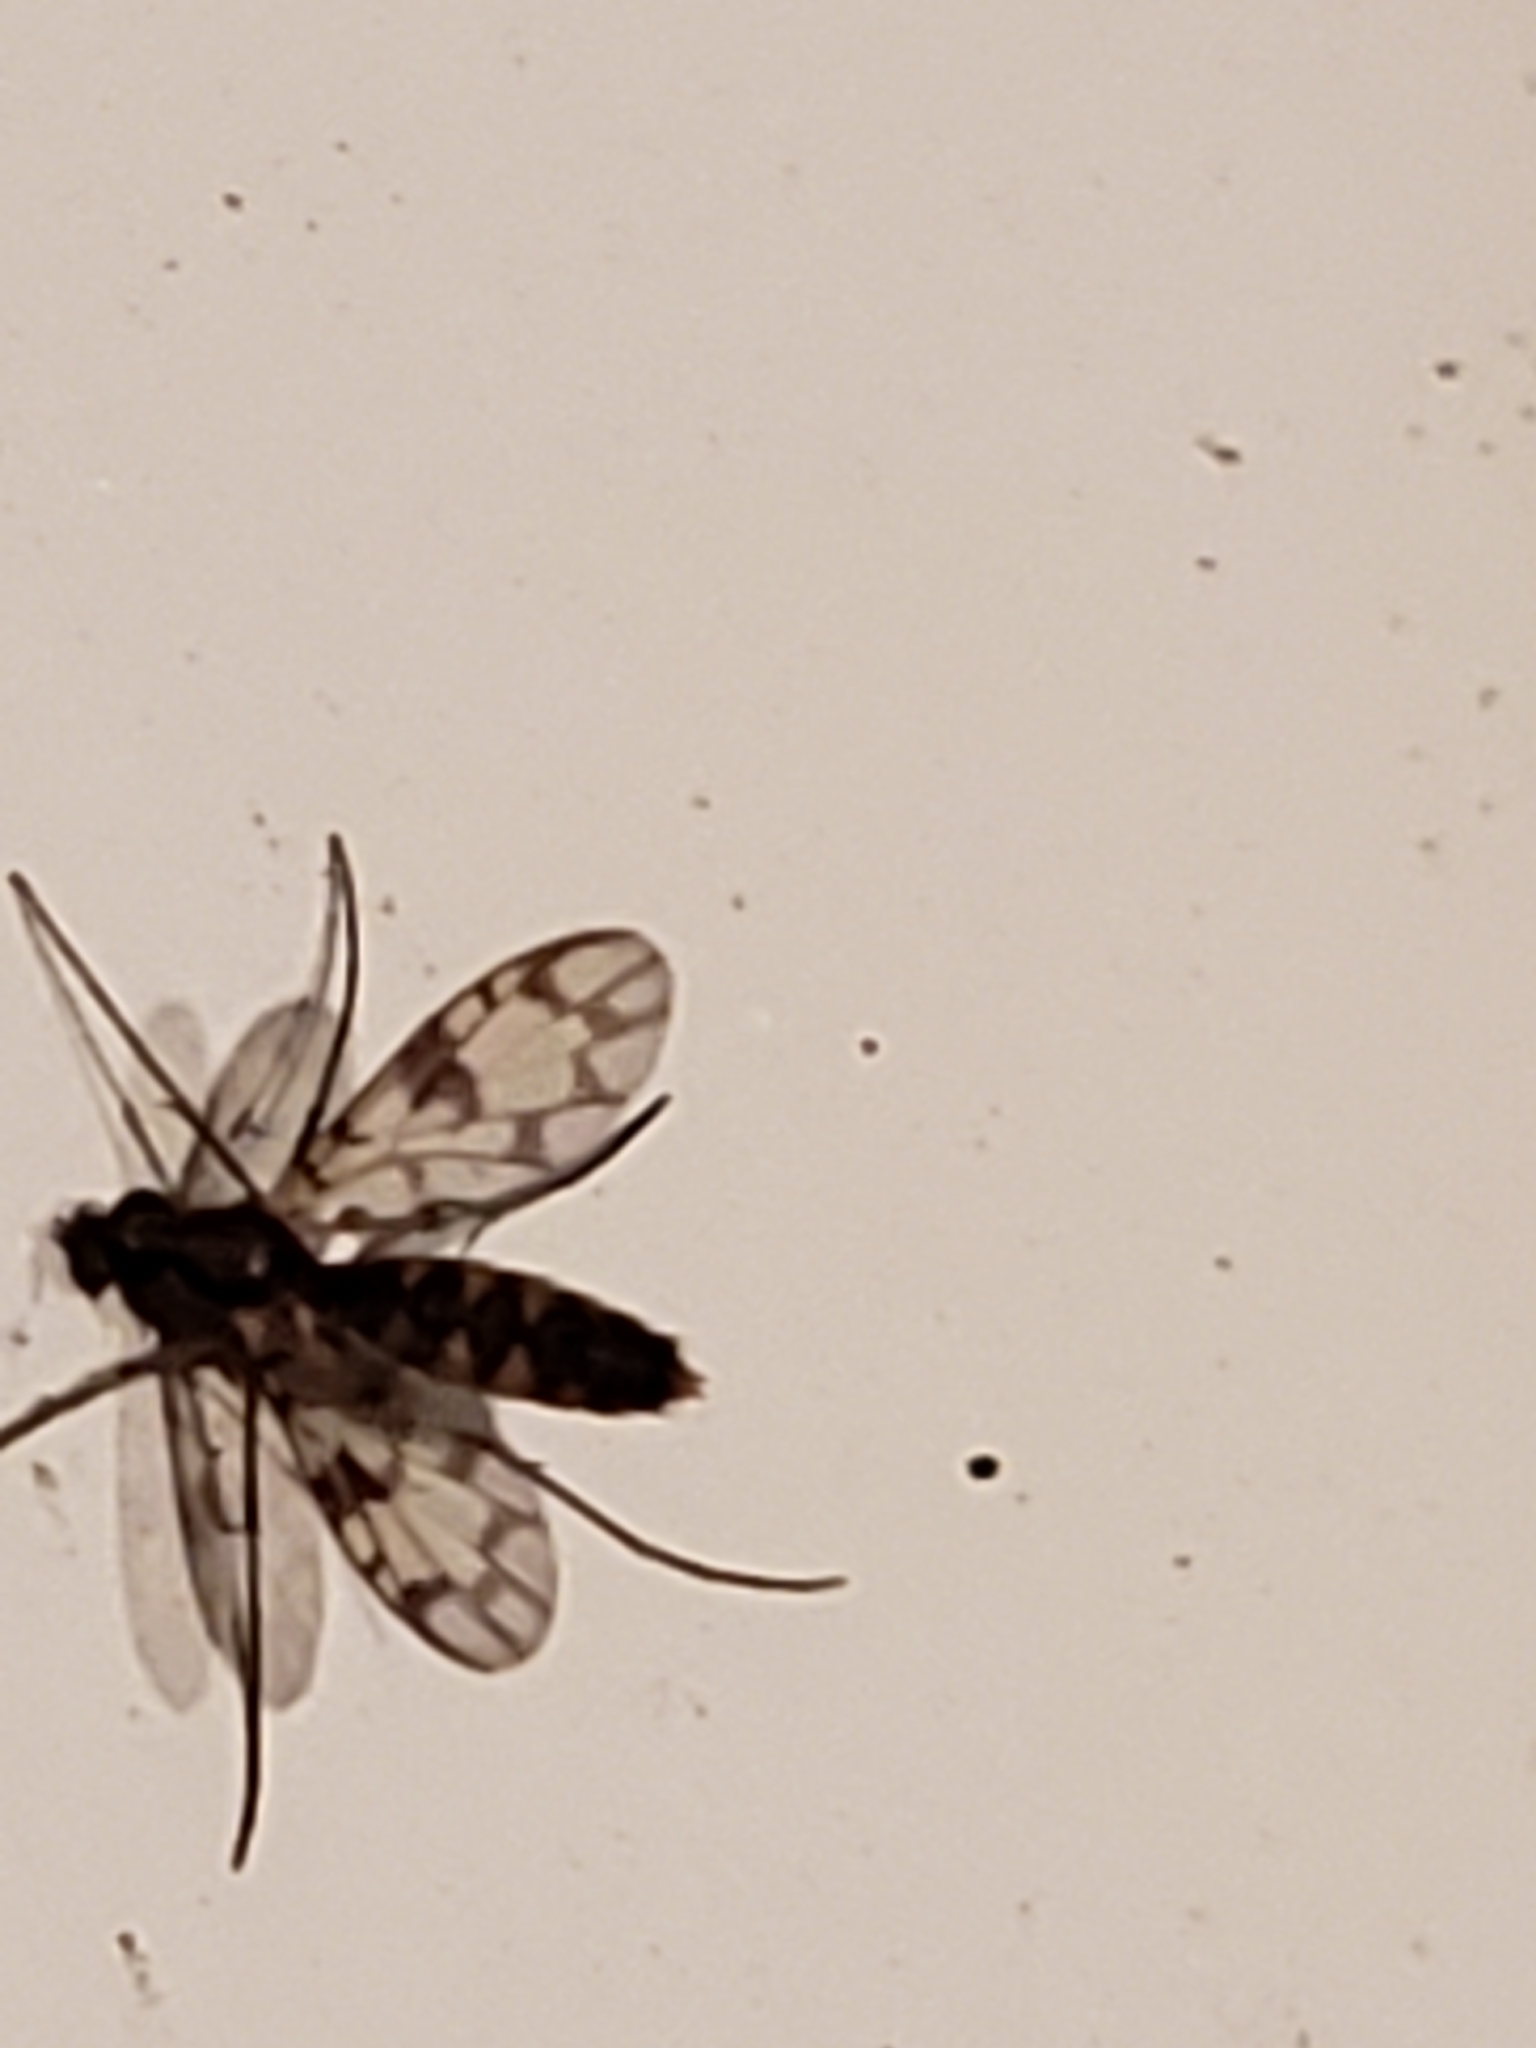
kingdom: Animalia
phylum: Arthropoda
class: Insecta
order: Diptera
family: Keroplatidae
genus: Proceroplatus
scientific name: Proceroplatus
